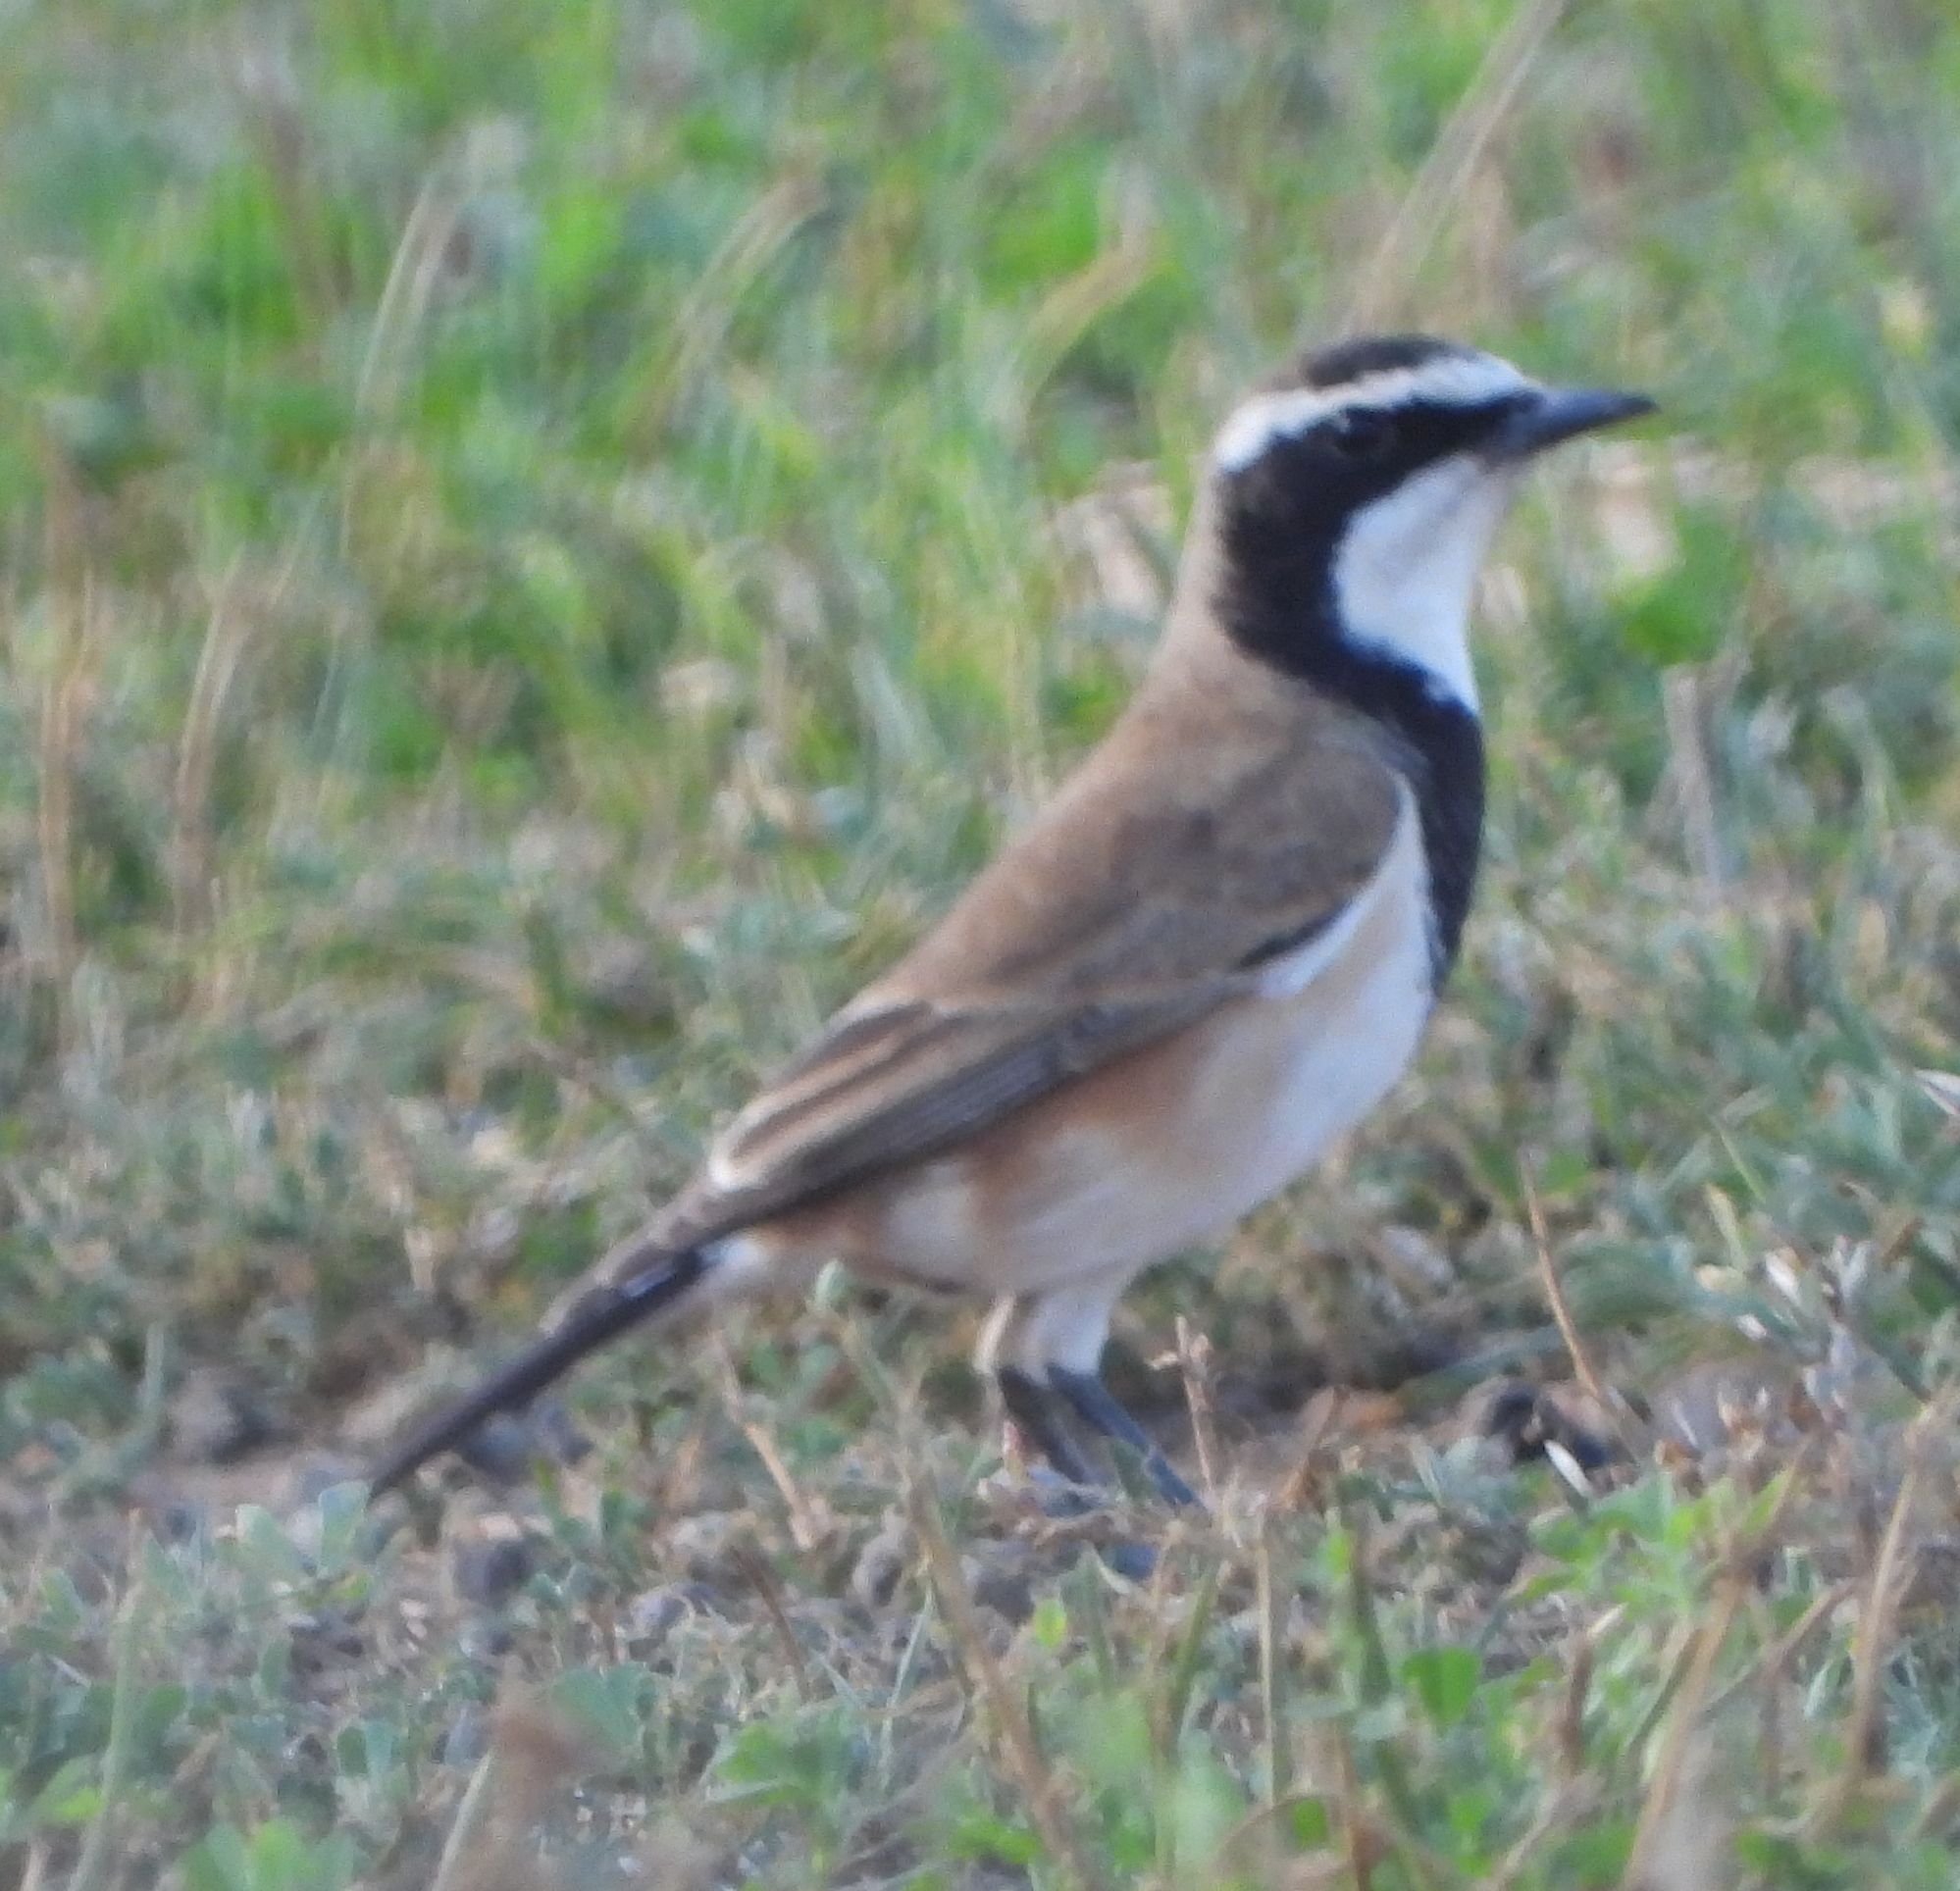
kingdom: Animalia
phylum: Chordata
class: Aves
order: Passeriformes
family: Muscicapidae
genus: Oenanthe
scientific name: Oenanthe pileata
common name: Capped wheatear
